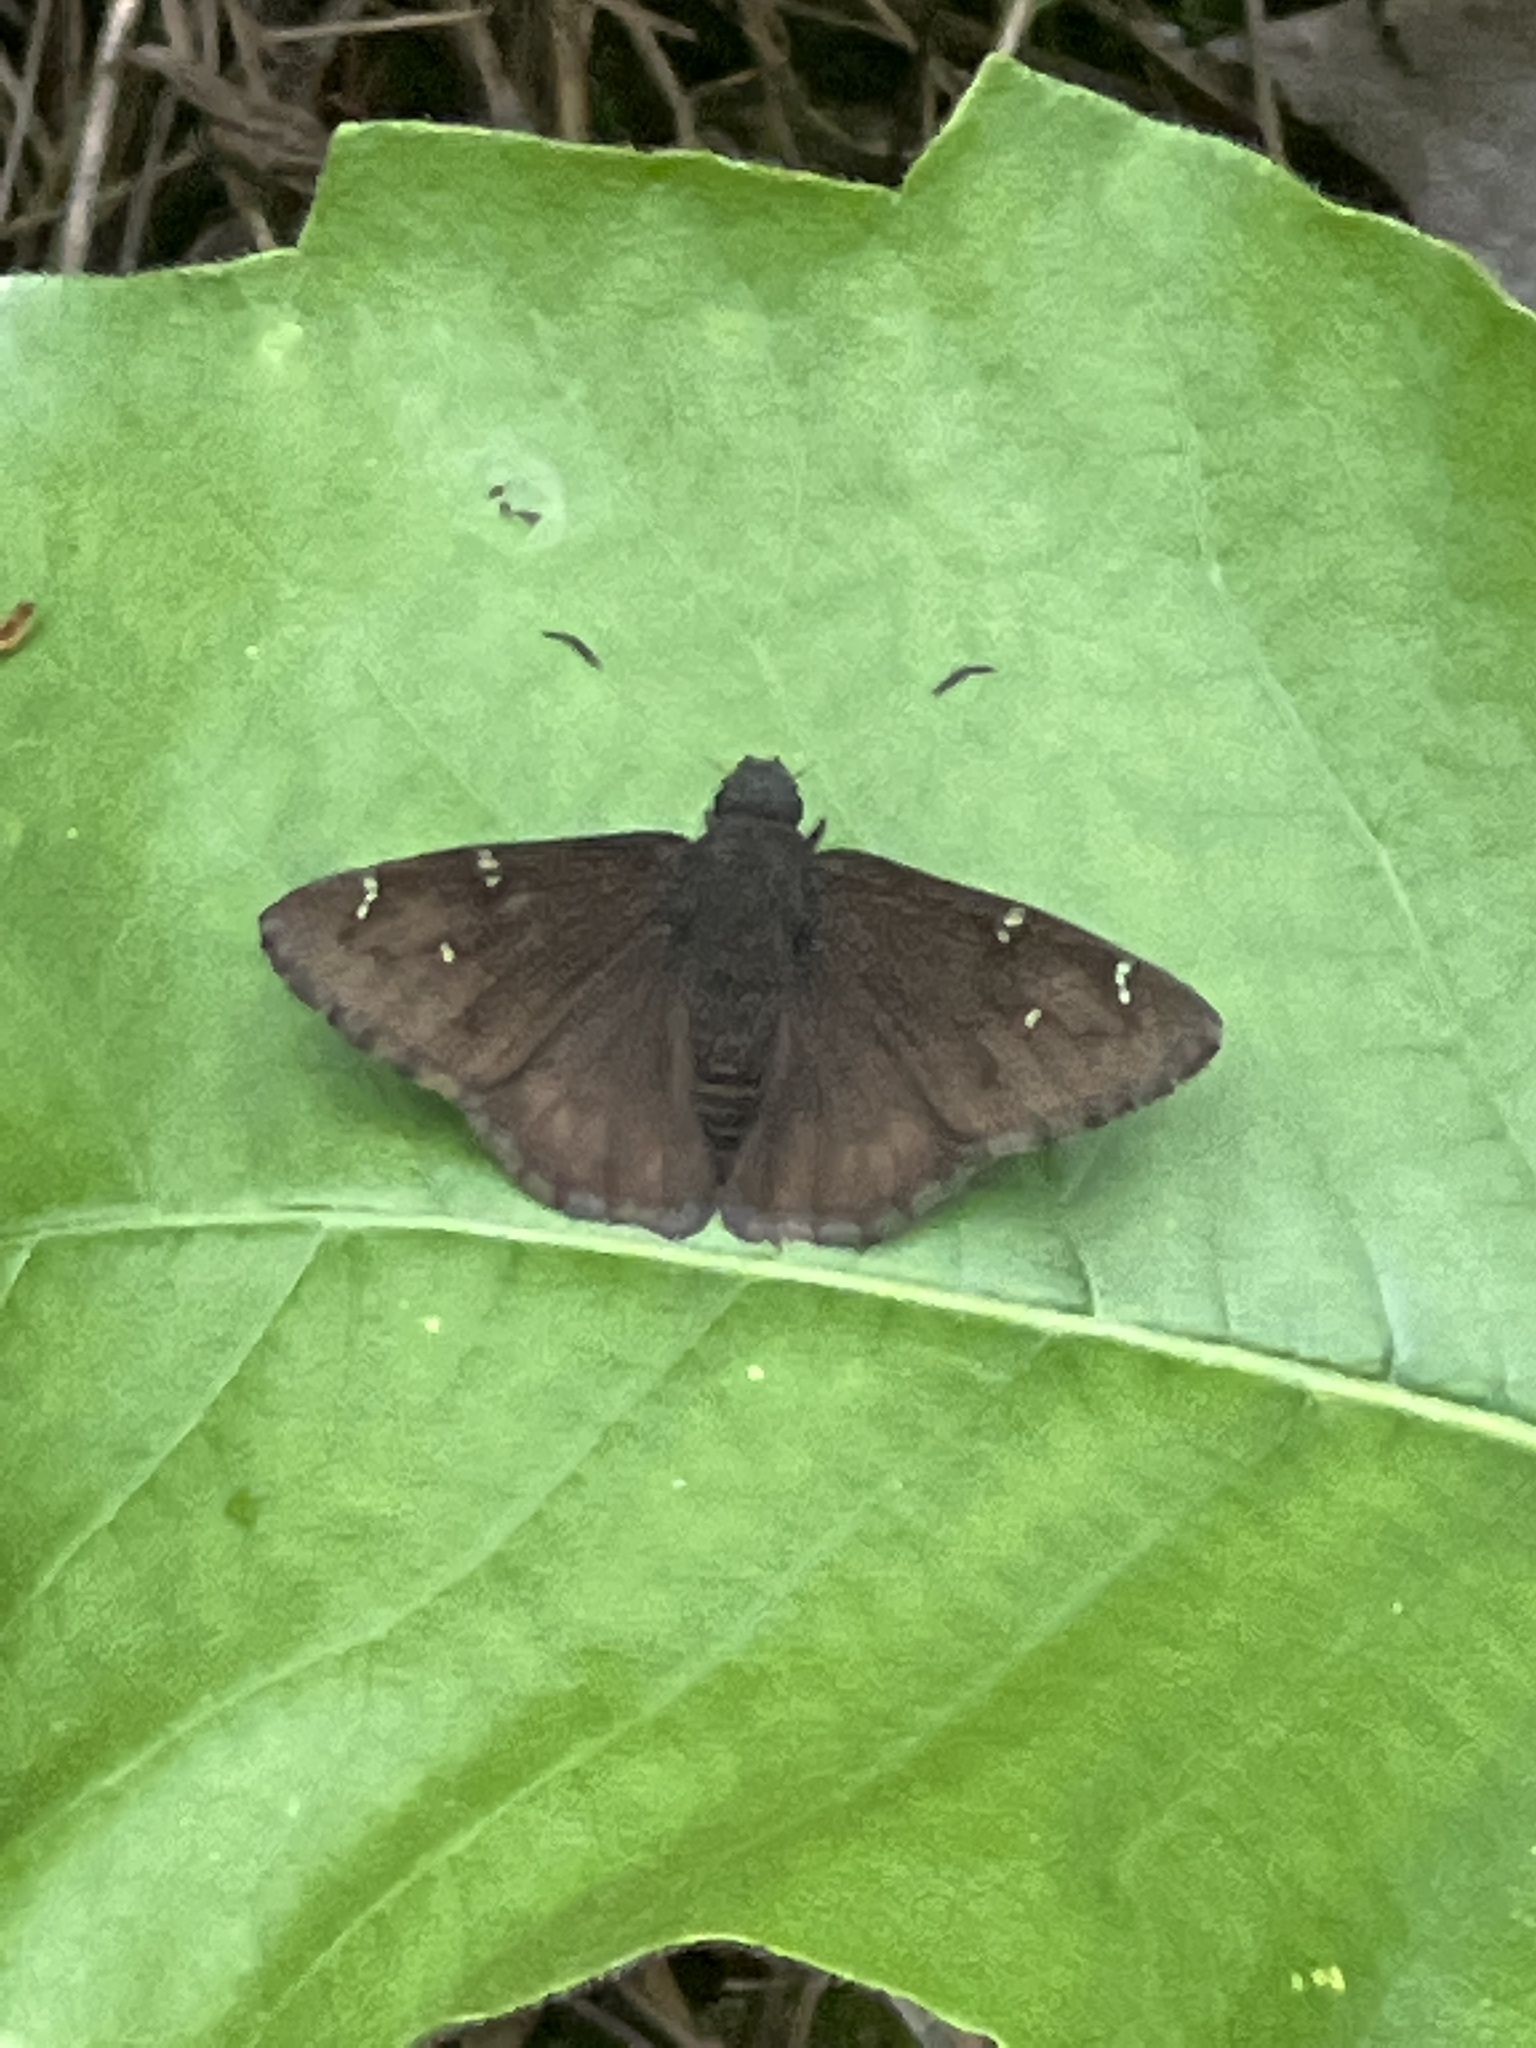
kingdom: Animalia
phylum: Arthropoda
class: Insecta
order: Lepidoptera
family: Hesperiidae
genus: Thorybes
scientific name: Thorybes pylades
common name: Northern cloudywing
